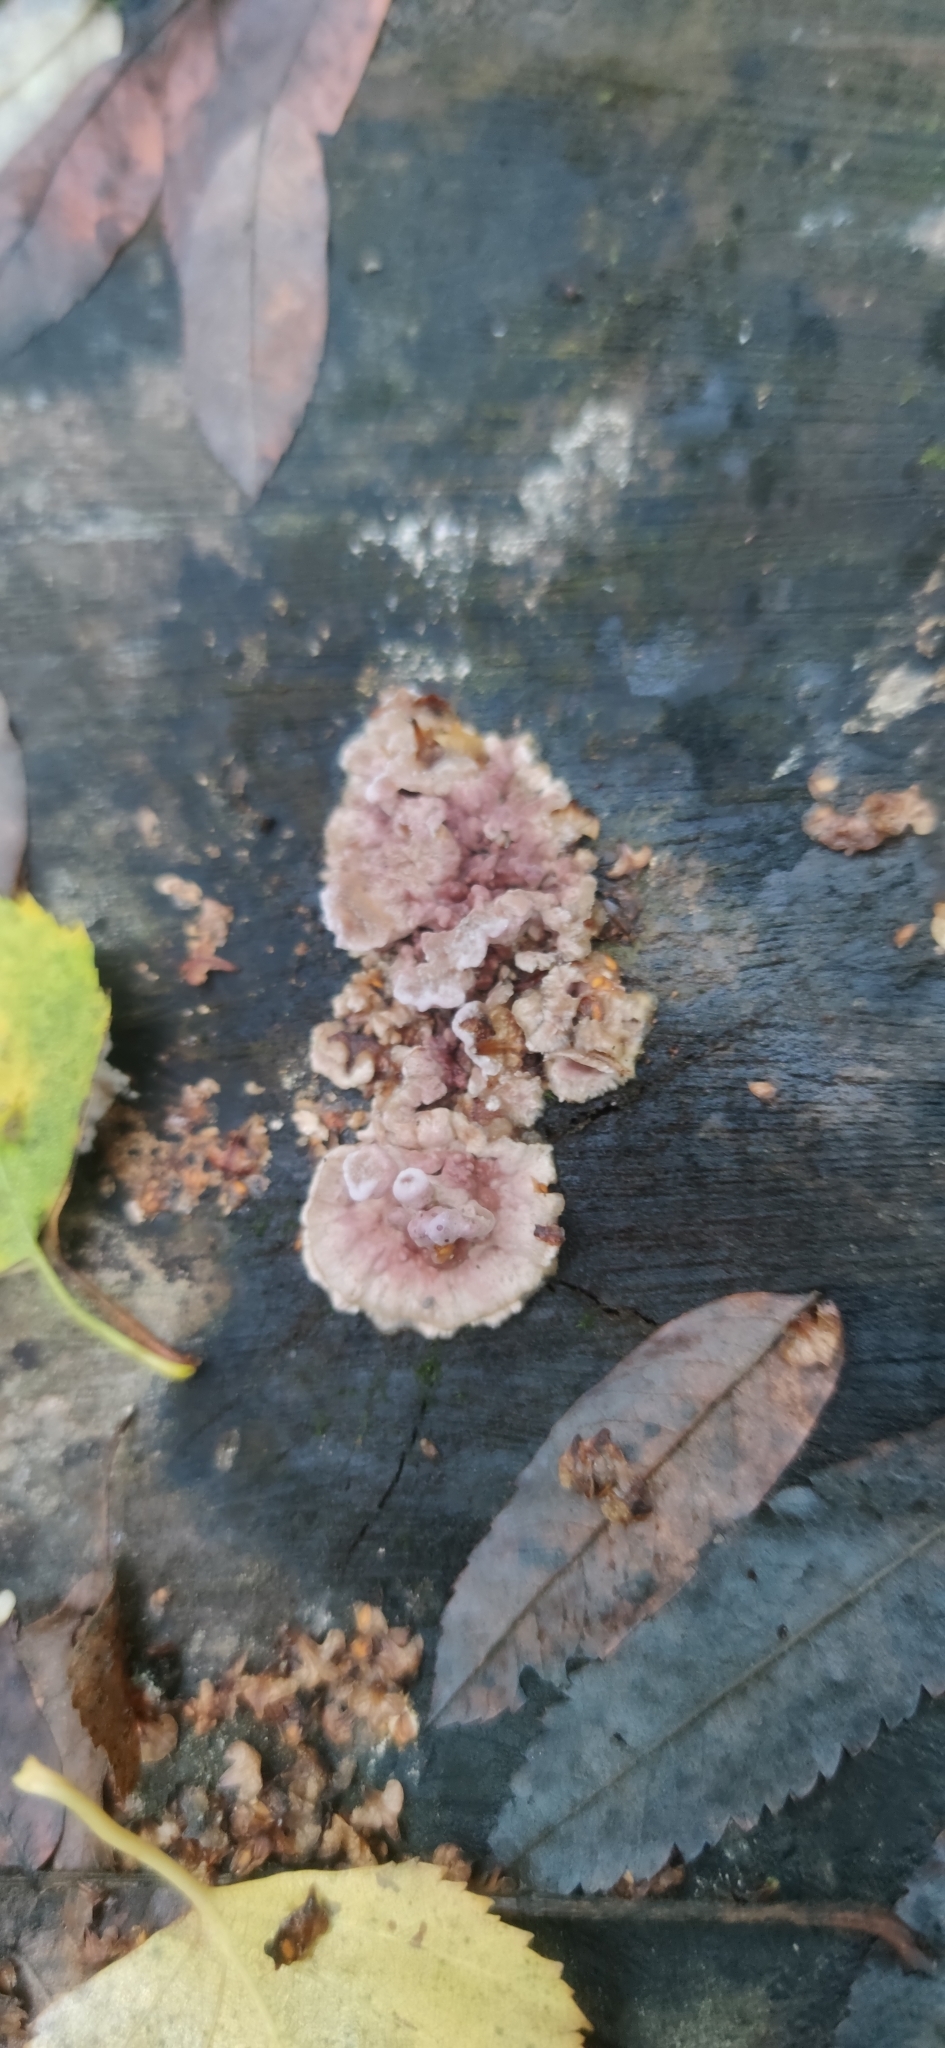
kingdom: Fungi
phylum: Basidiomycota
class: Agaricomycetes
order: Polyporales
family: Meruliaceae
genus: Phlebia
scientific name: Phlebia radiata
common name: Wrinkled crust
